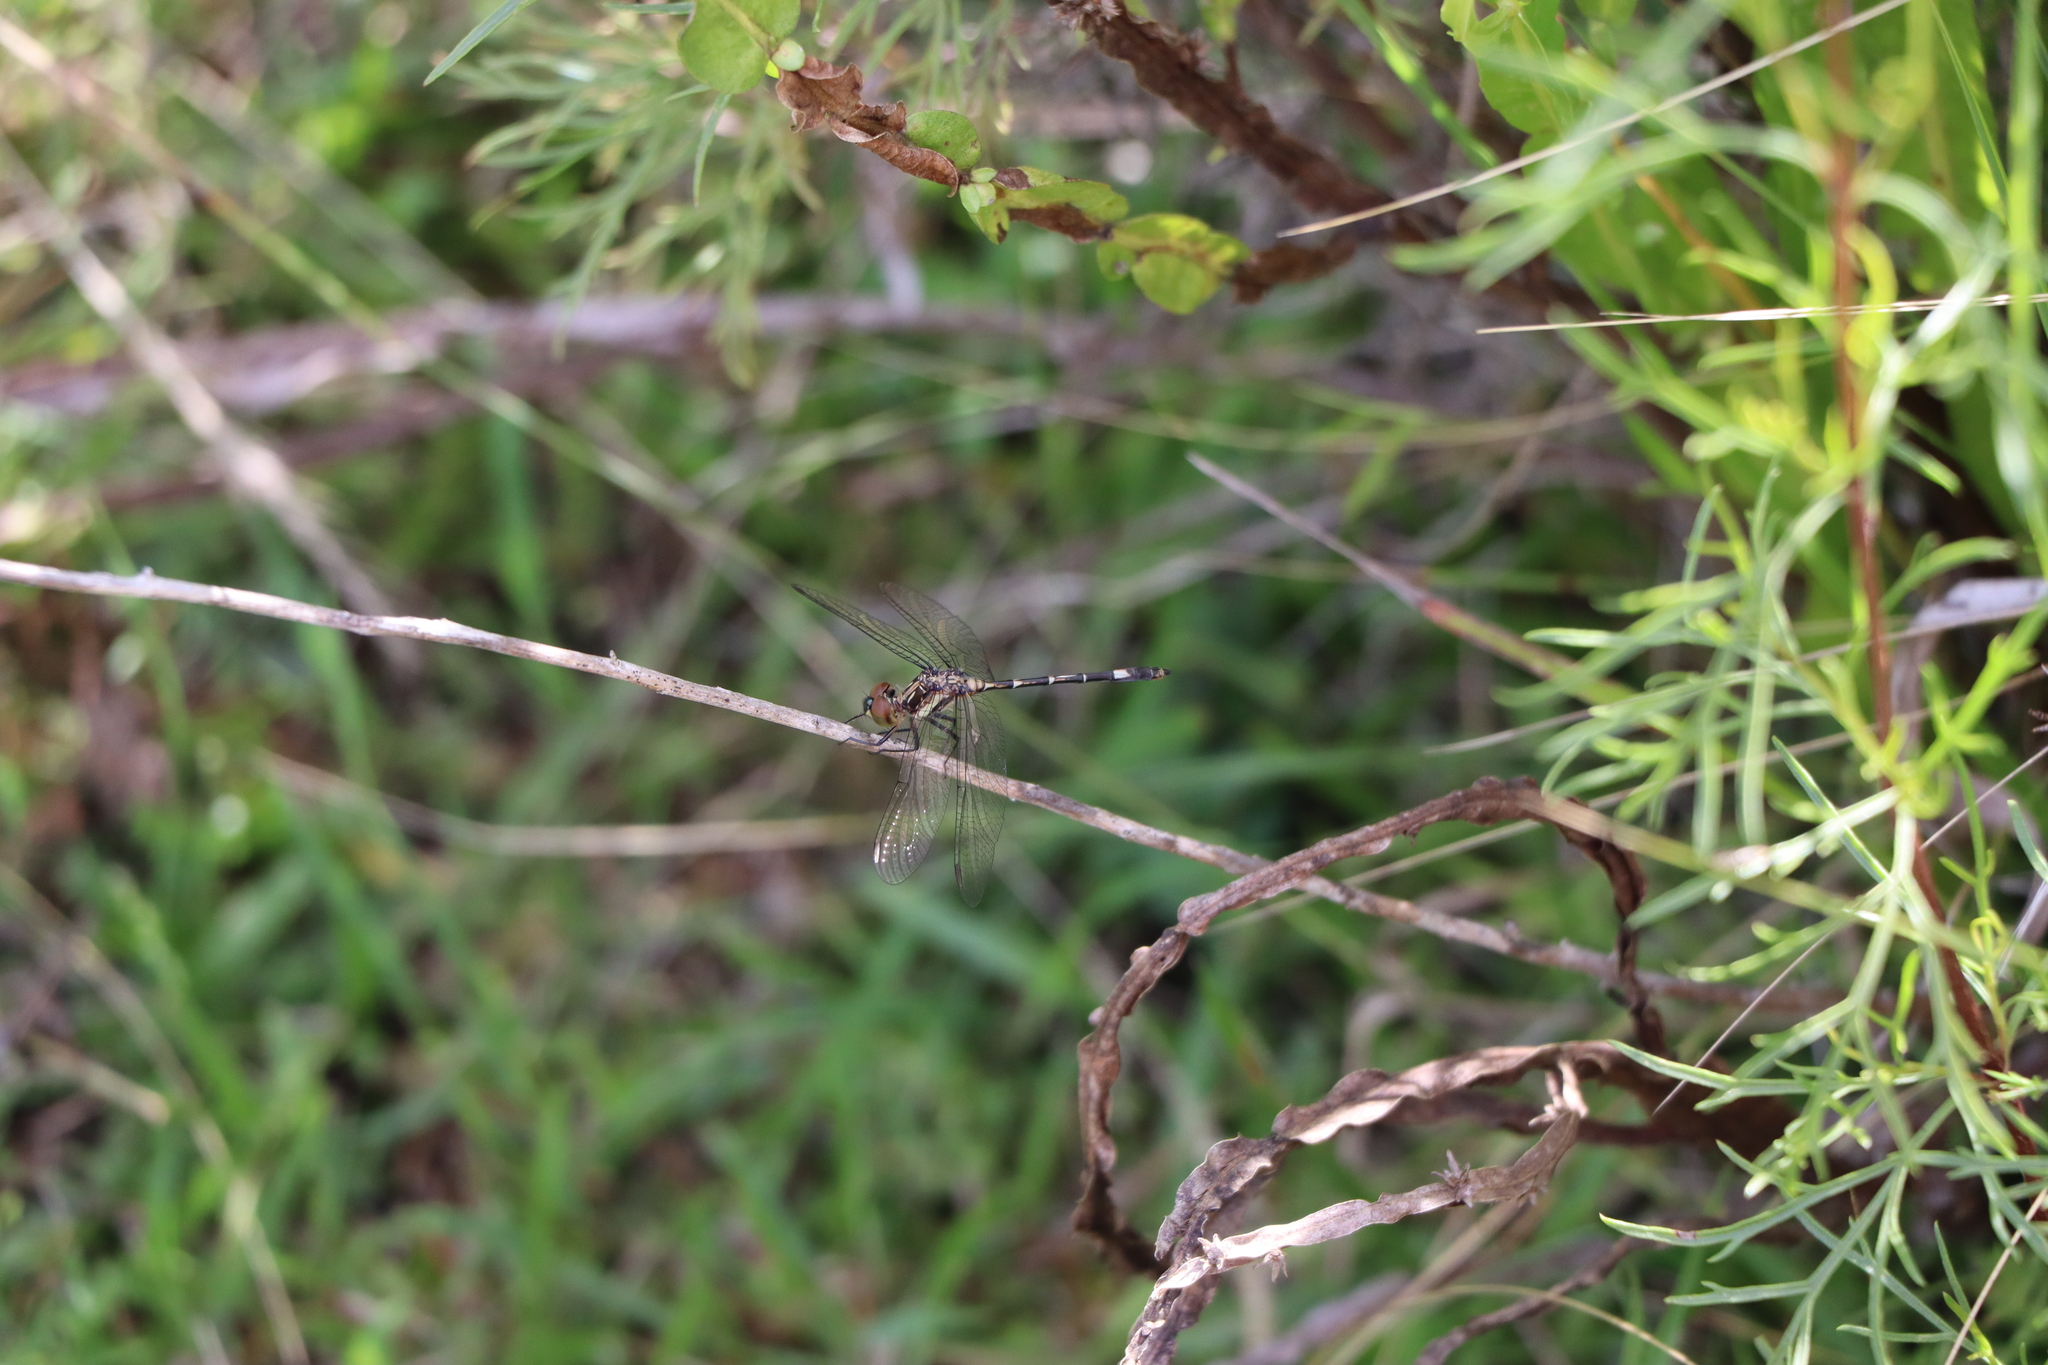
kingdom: Animalia
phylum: Arthropoda
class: Insecta
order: Odonata
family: Libellulidae
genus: Micrathyria
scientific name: Micrathyria hypodidyma
